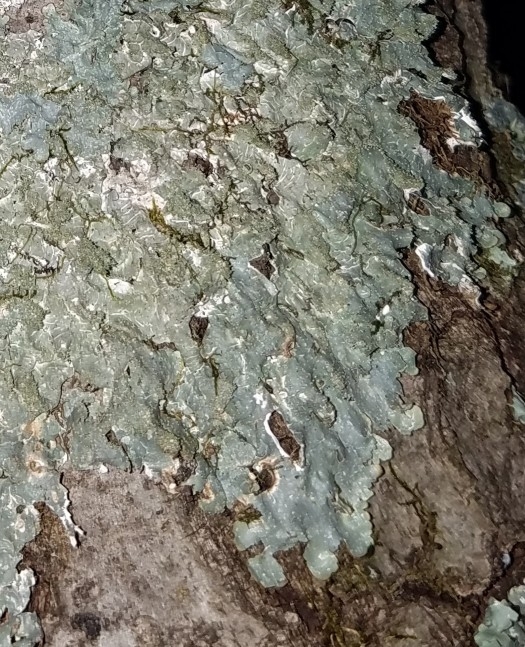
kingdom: Fungi
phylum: Ascomycota
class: Lecanoromycetes
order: Lecanorales
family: Parmeliaceae
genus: Punctelia
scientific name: Punctelia rudecta
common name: Rough speckled shield lichen
